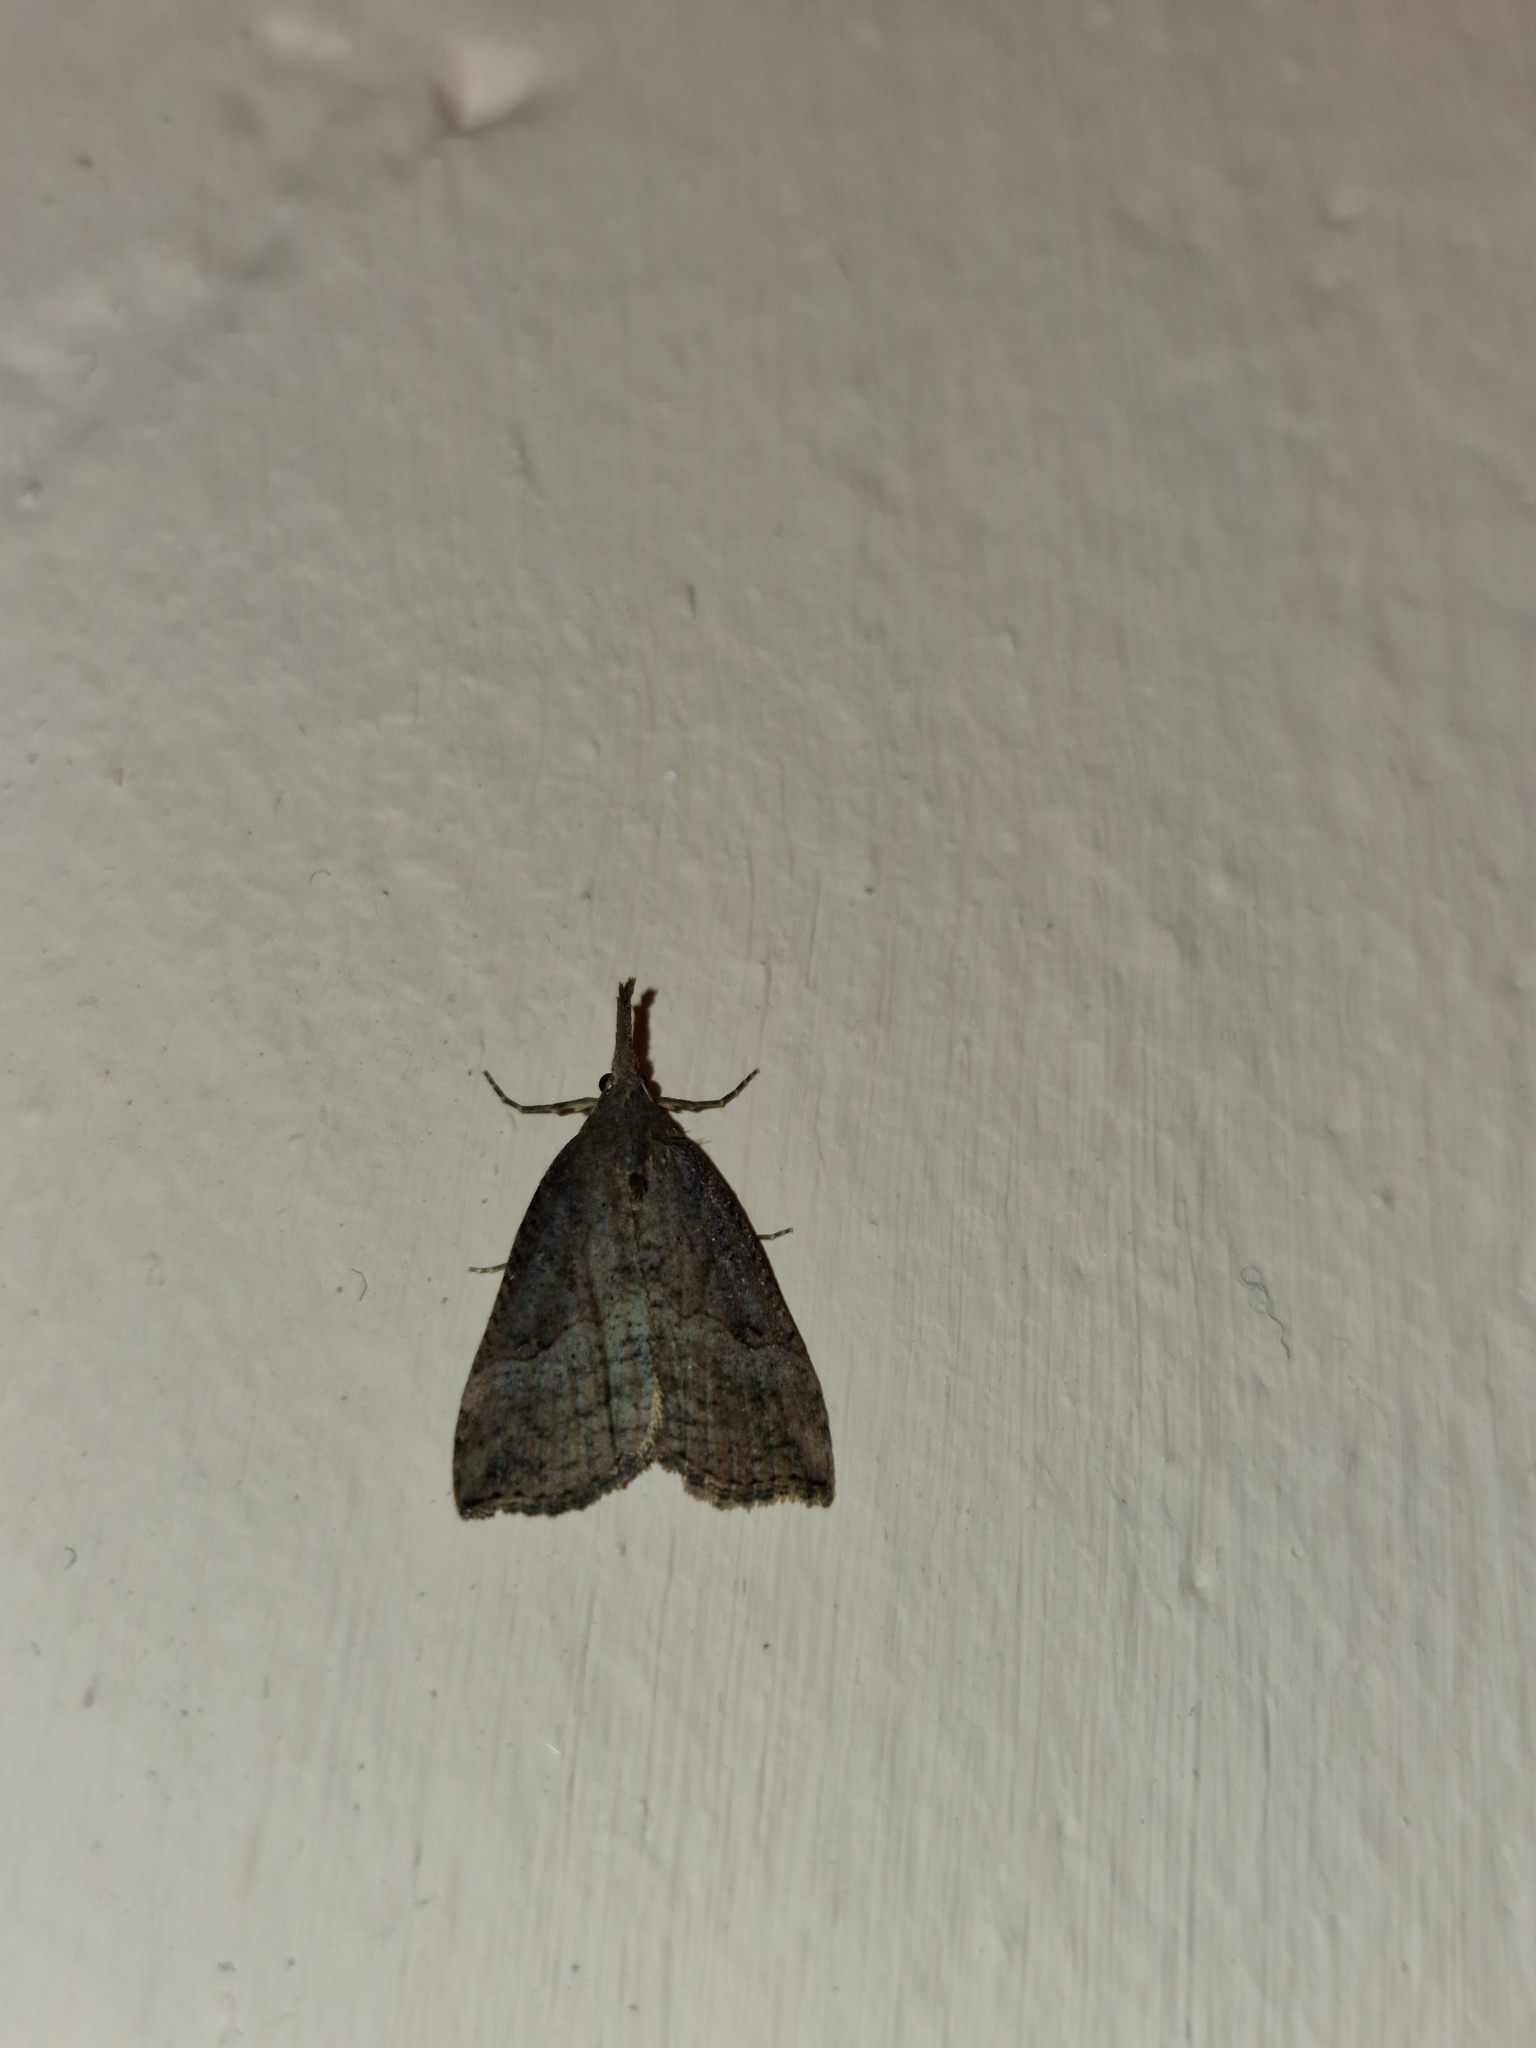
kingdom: Animalia
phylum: Arthropoda
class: Insecta
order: Lepidoptera
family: Erebidae
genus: Hypena
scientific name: Hypena proboscidalis
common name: Snout
